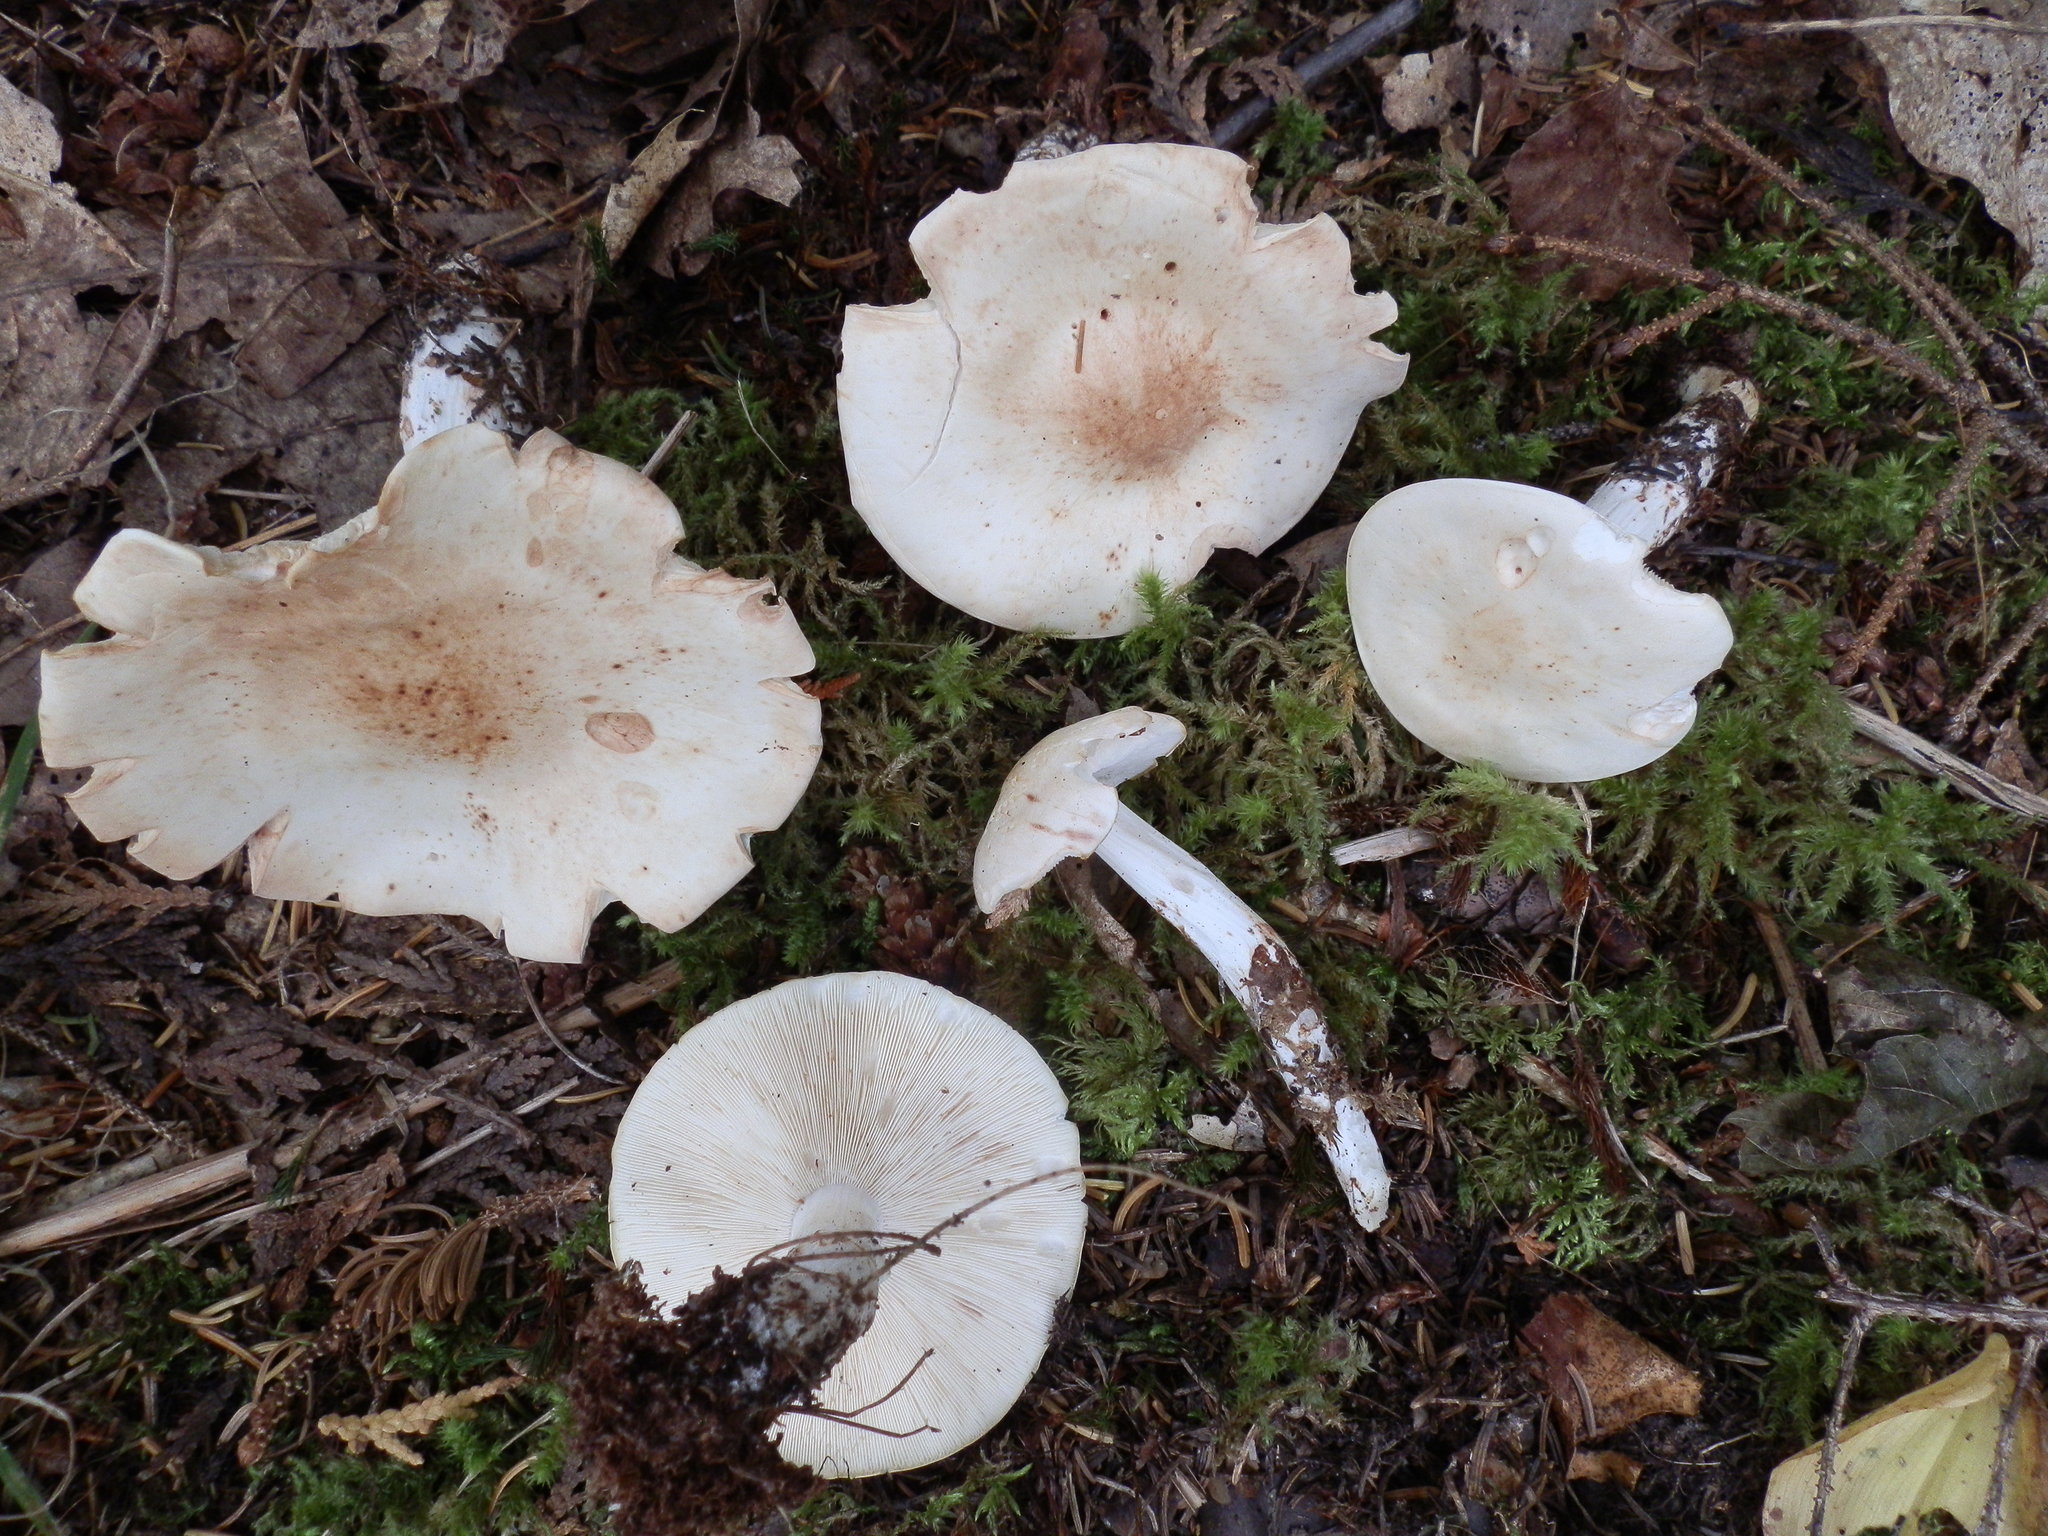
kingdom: Fungi
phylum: Basidiomycota
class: Agaricomycetes
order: Agaricales
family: Omphalotaceae
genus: Rhodocollybia
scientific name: Rhodocollybia maculata
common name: Spotted tough-shank
